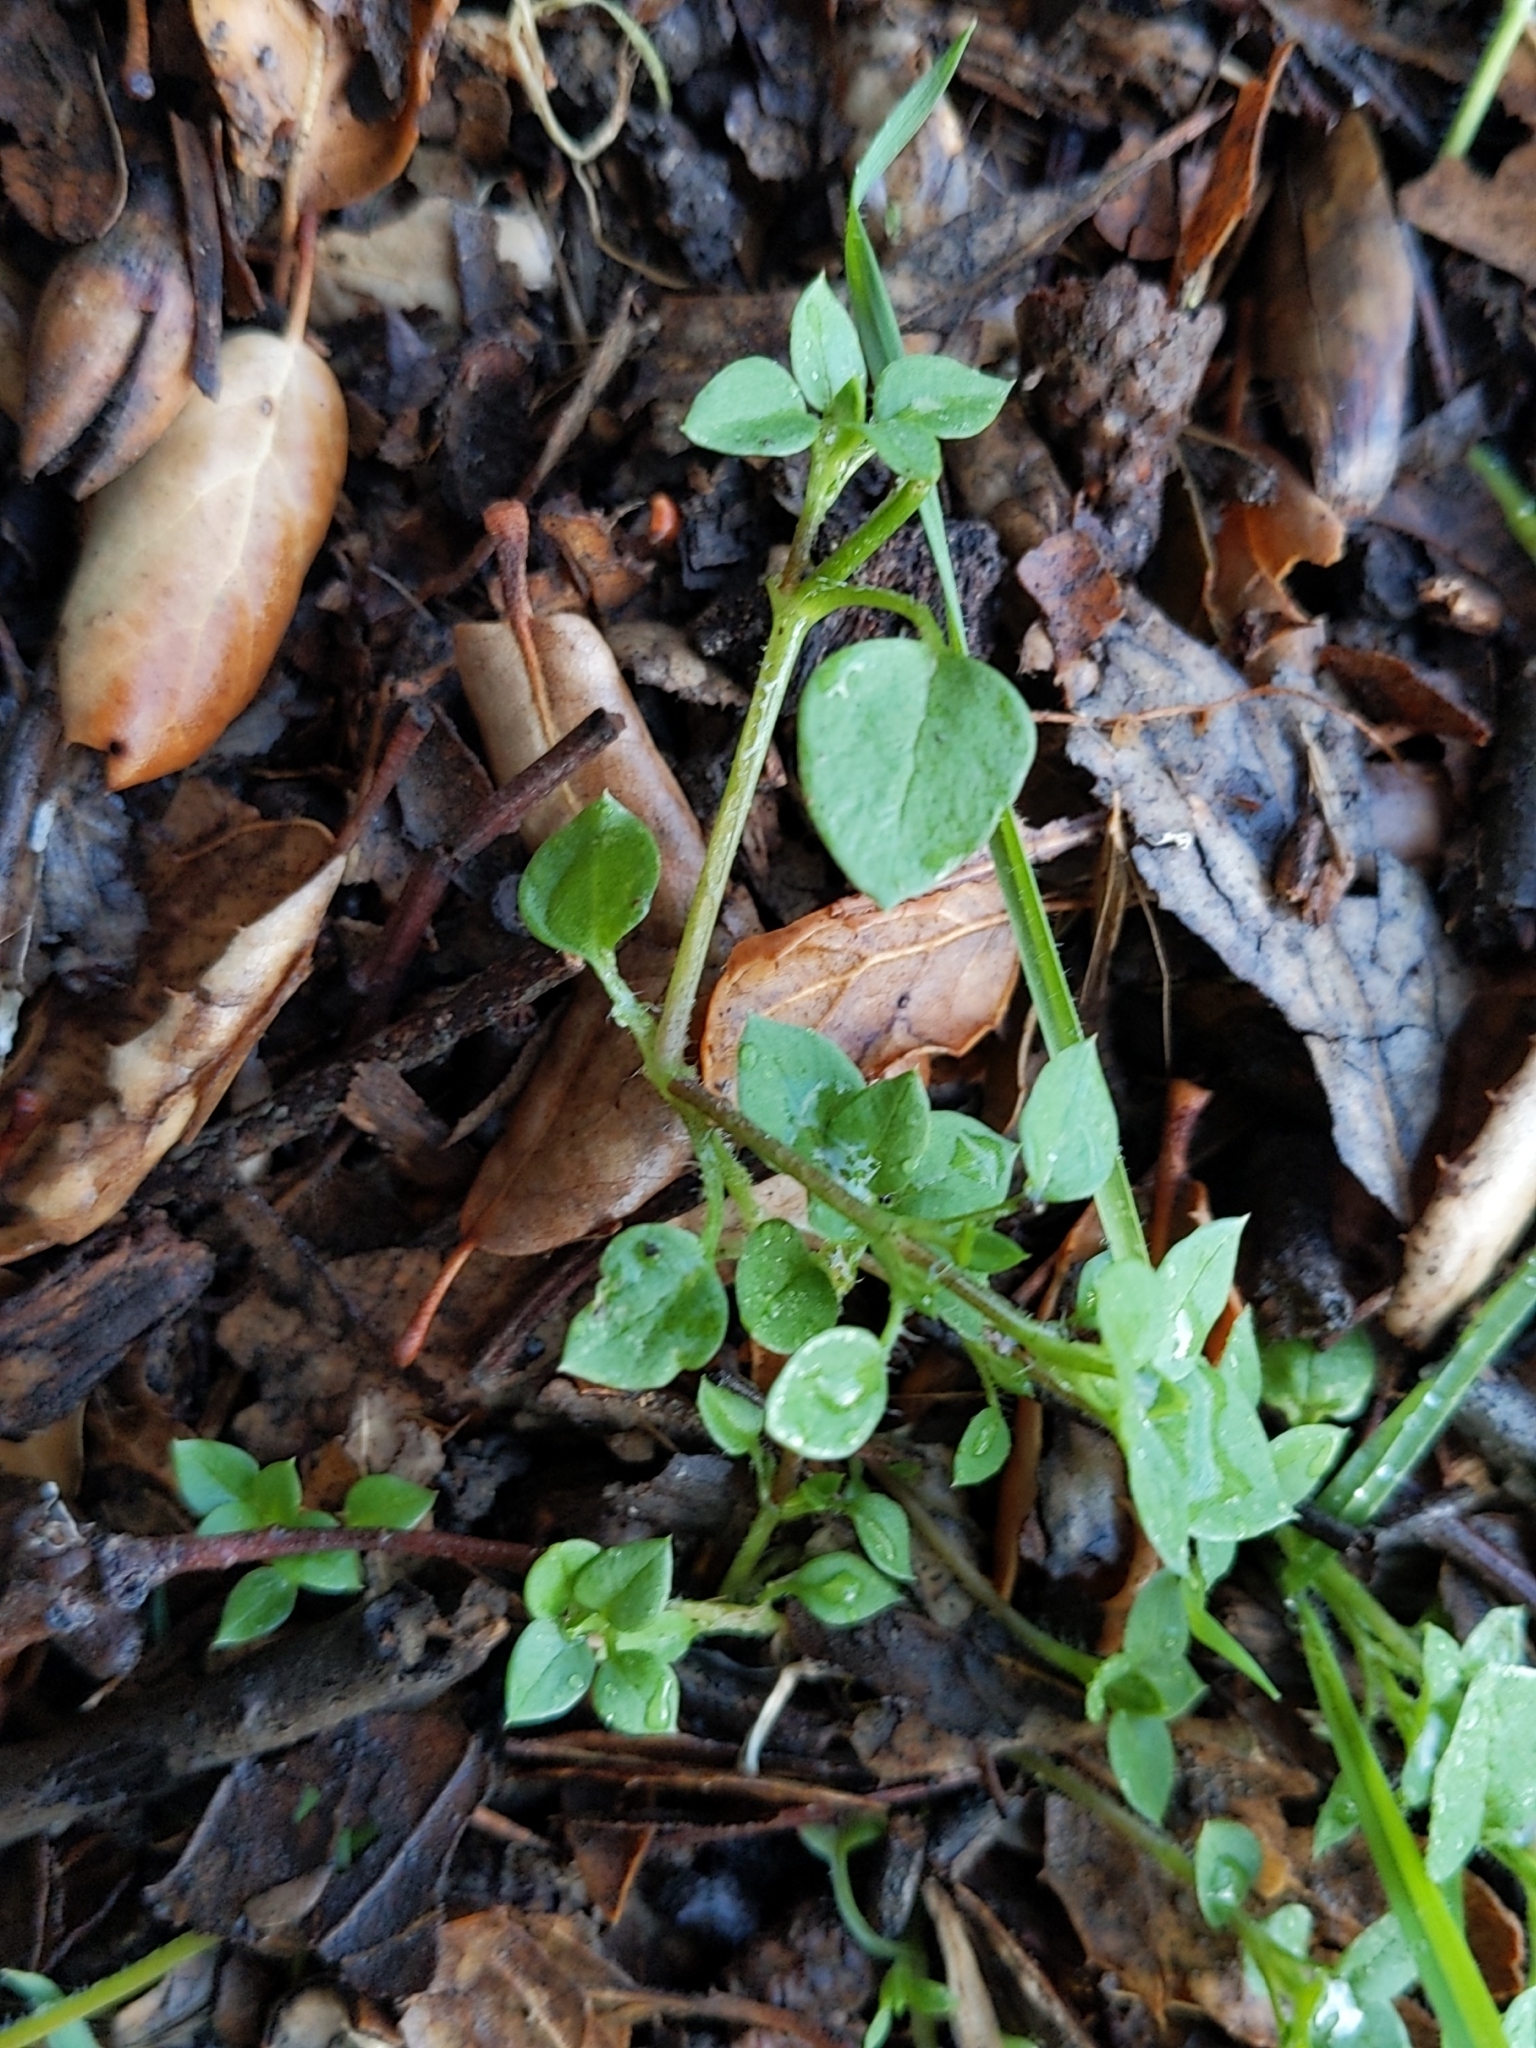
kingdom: Plantae
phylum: Tracheophyta
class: Magnoliopsida
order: Caryophyllales
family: Caryophyllaceae
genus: Stellaria
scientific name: Stellaria media
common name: Common chickweed
